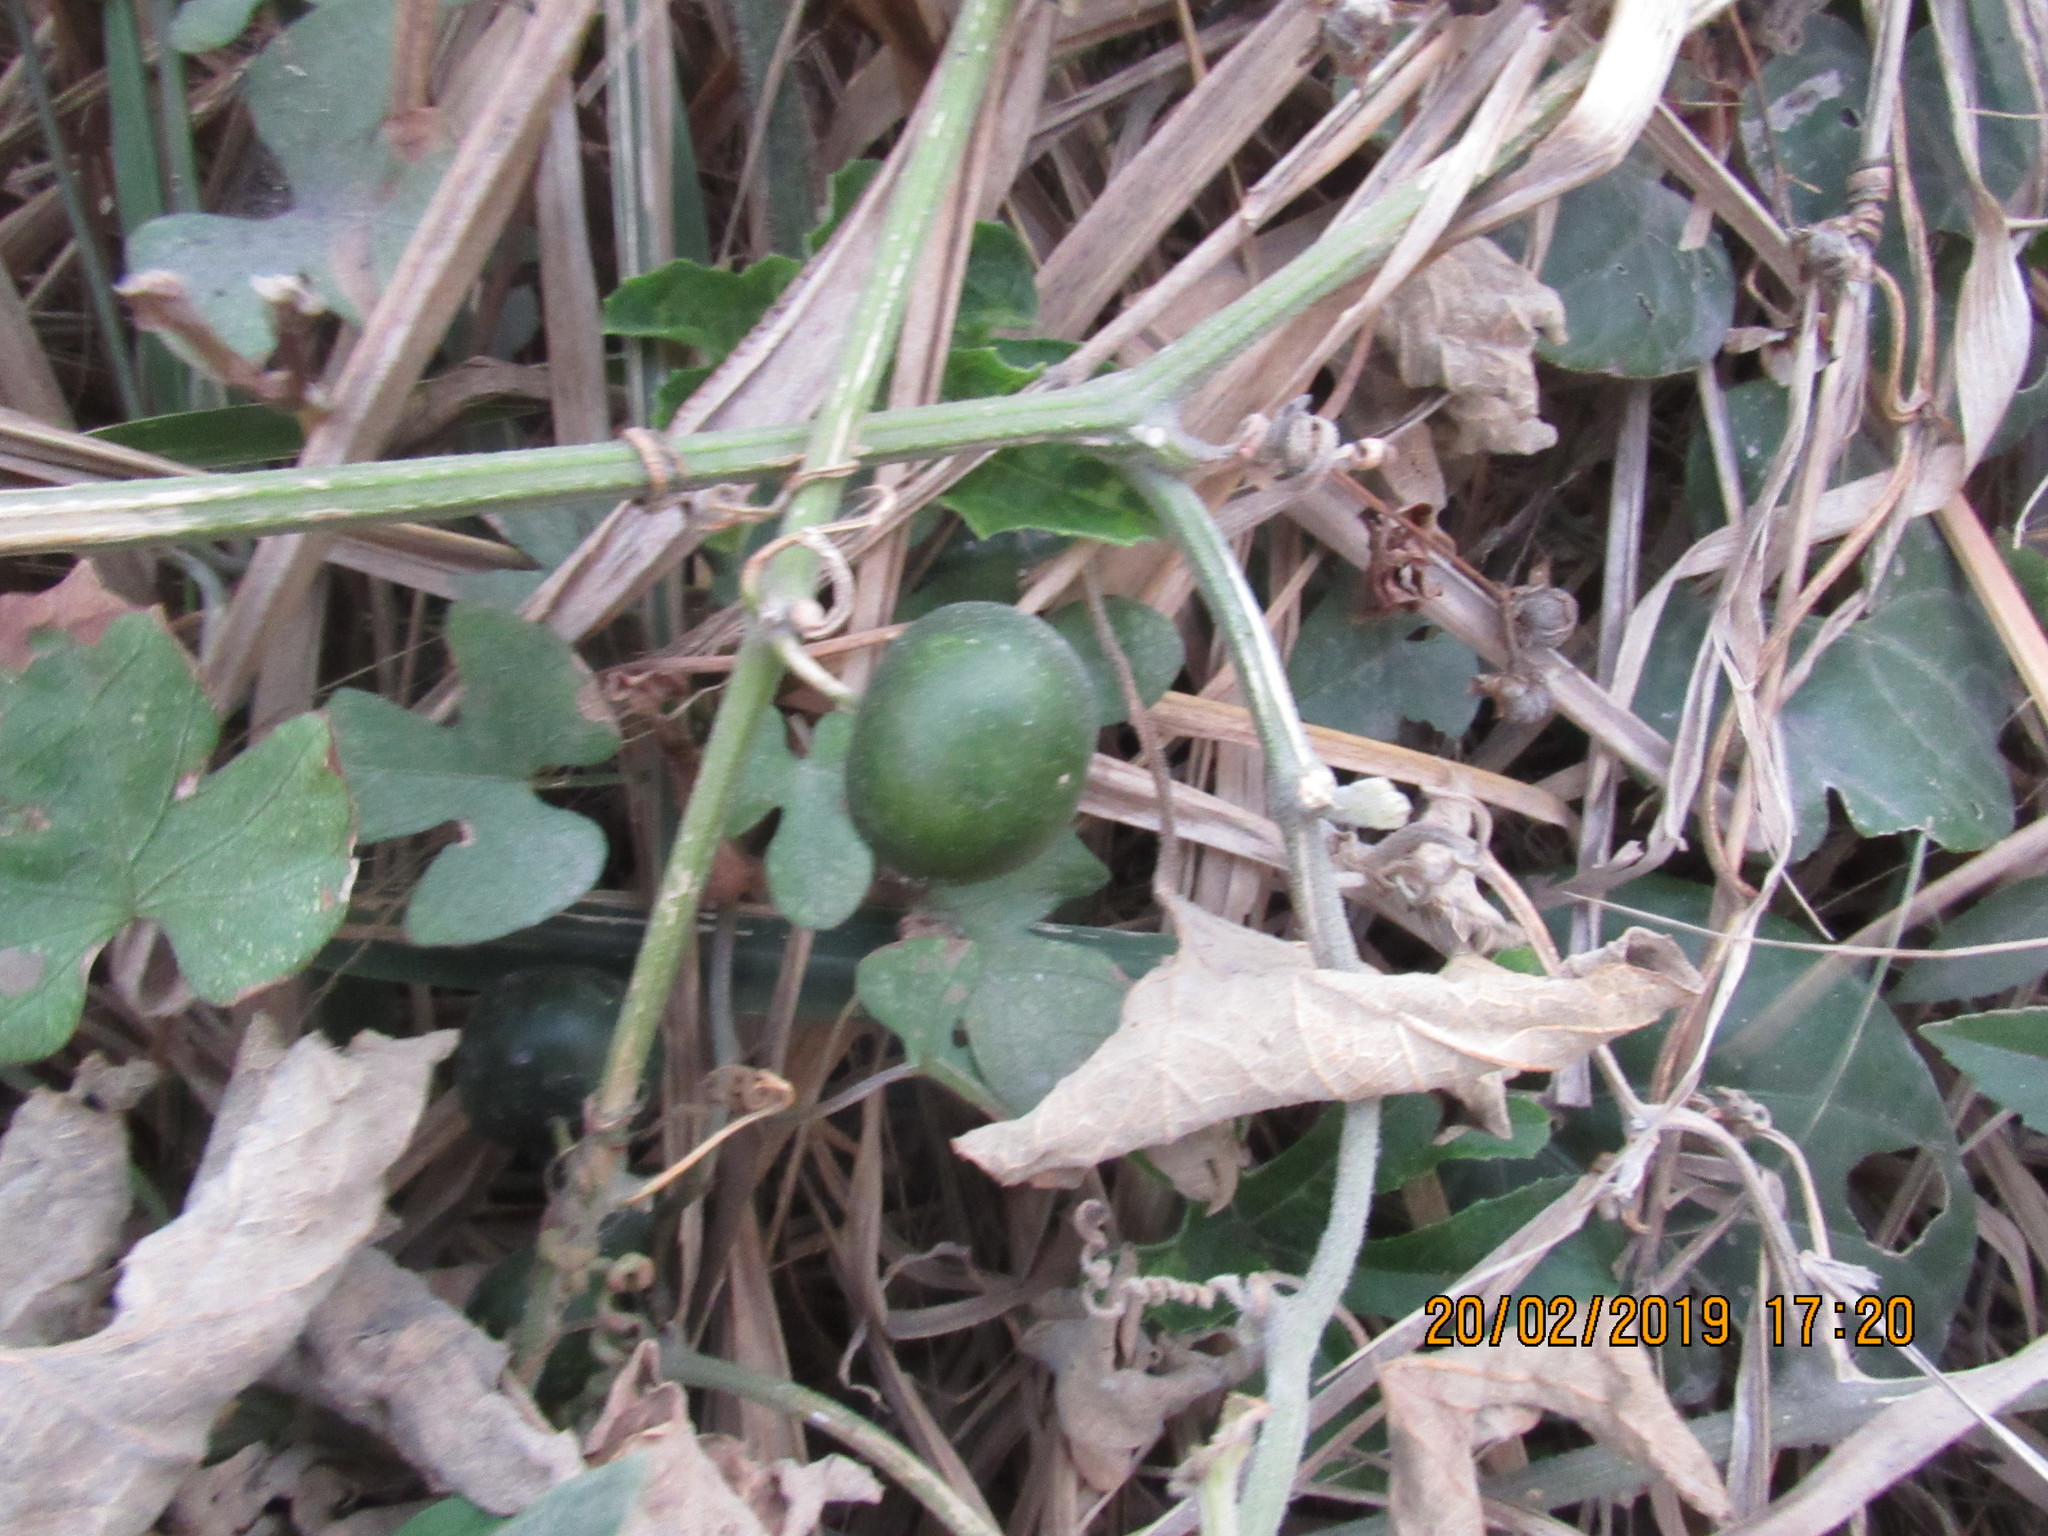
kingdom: Plantae
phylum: Tracheophyta
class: Magnoliopsida
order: Cucurbitales
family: Cucurbitaceae
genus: Cayaponia
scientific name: Cayaponia attenuata
